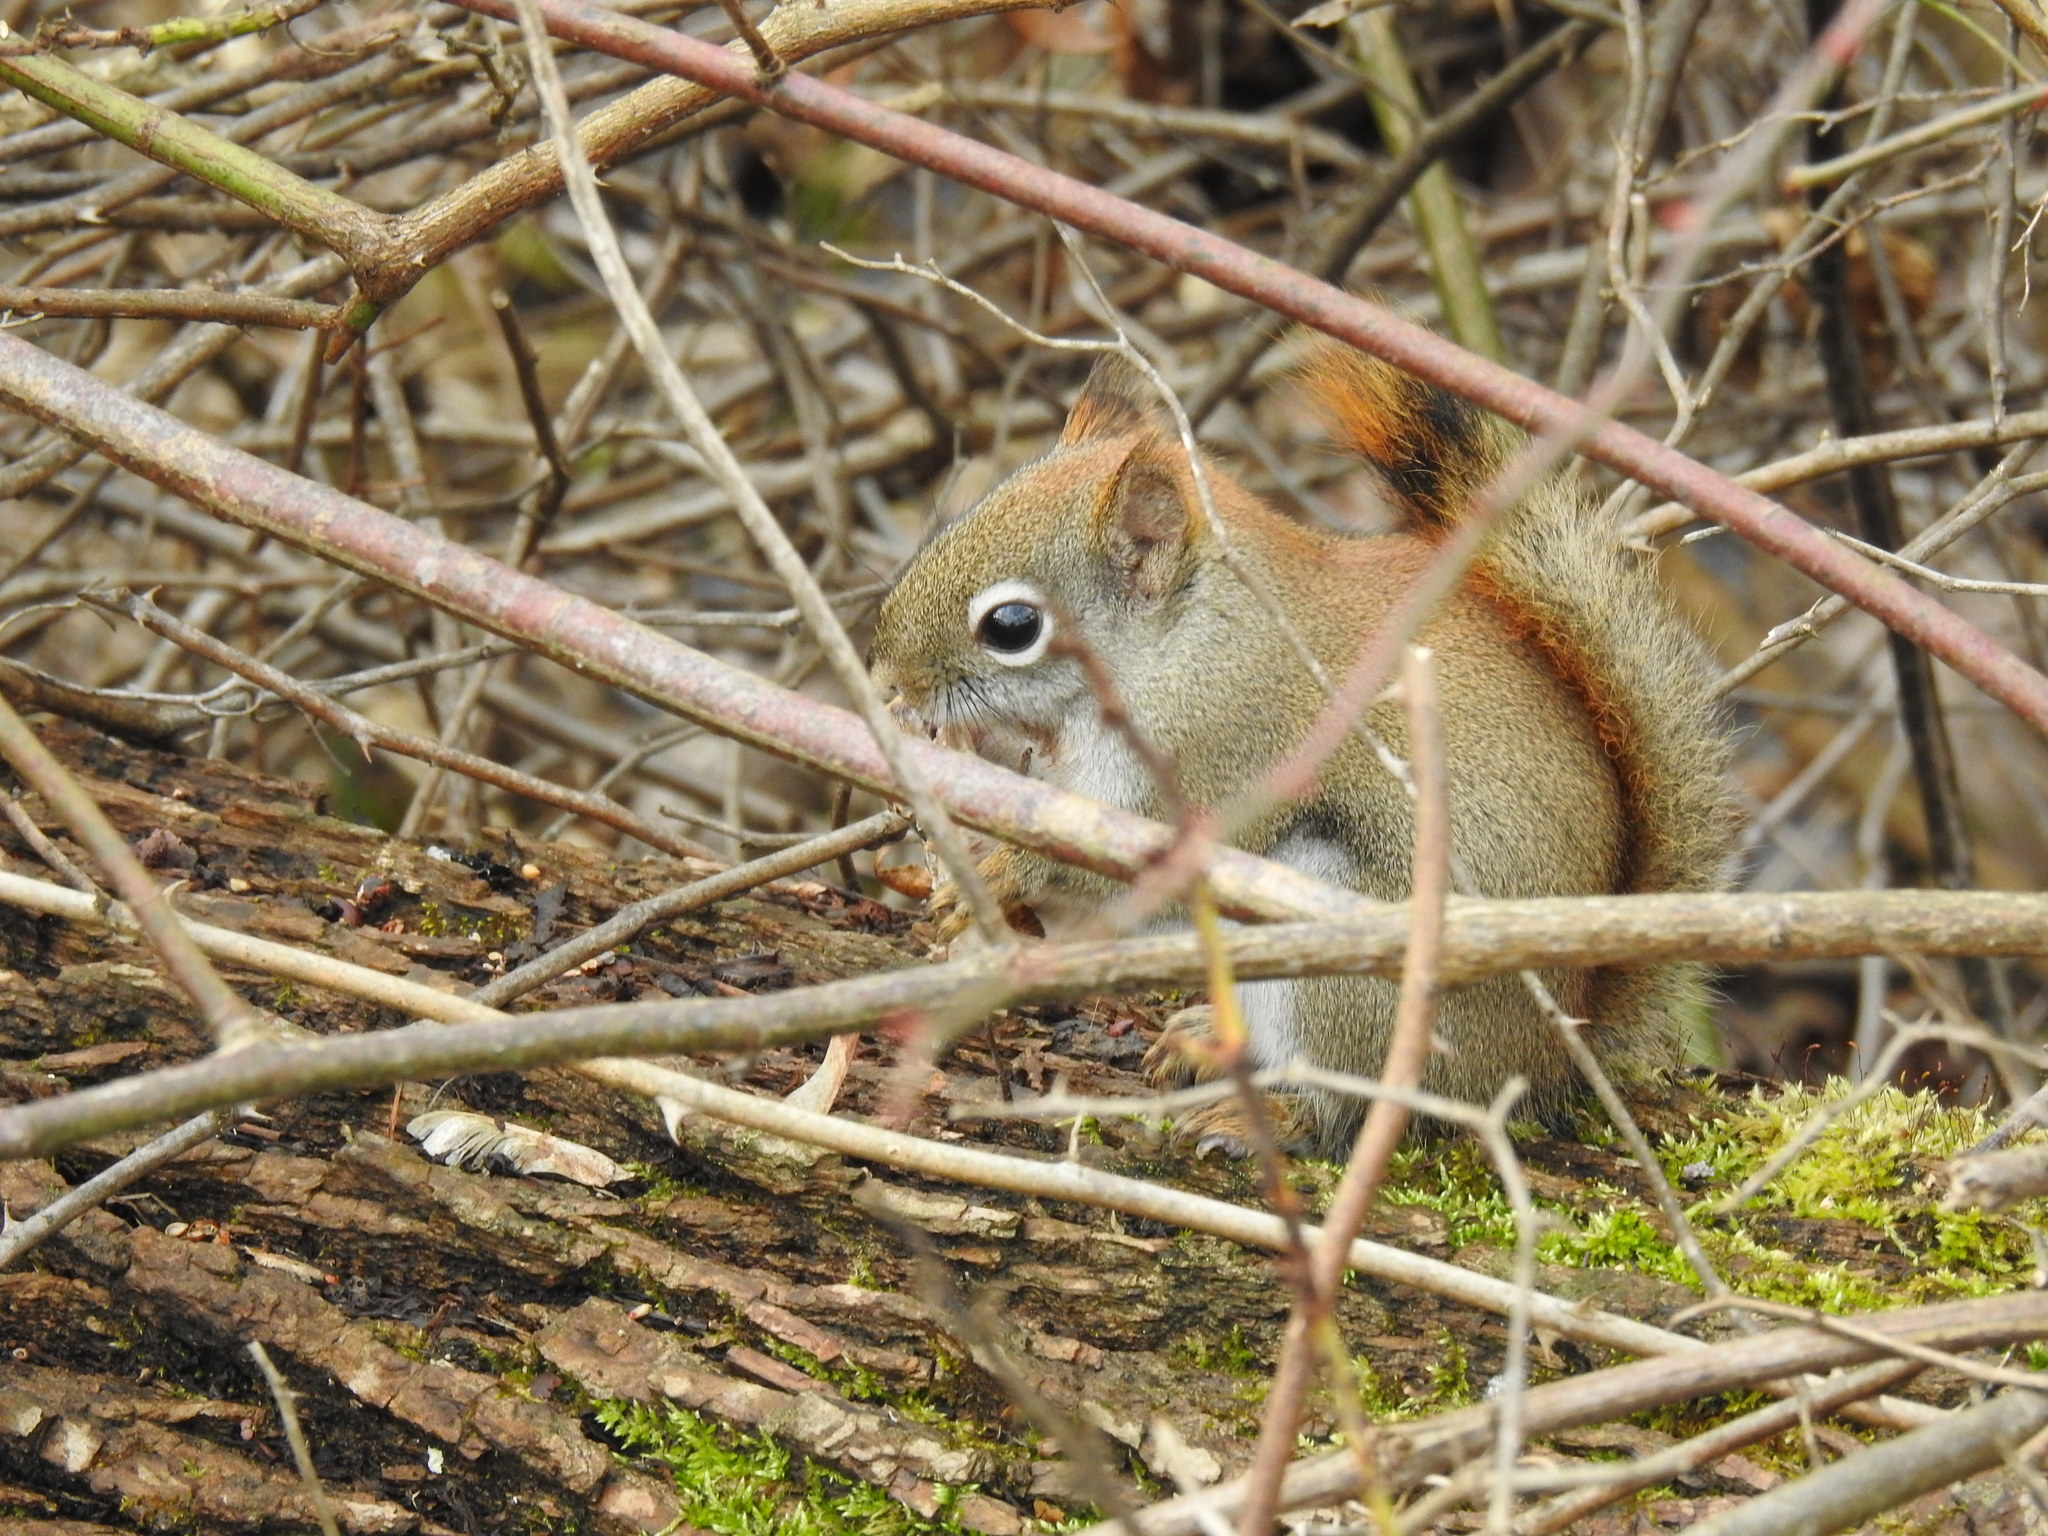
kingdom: Animalia
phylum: Chordata
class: Mammalia
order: Rodentia
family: Sciuridae
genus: Tamiasciurus
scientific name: Tamiasciurus hudsonicus
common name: Red squirrel
